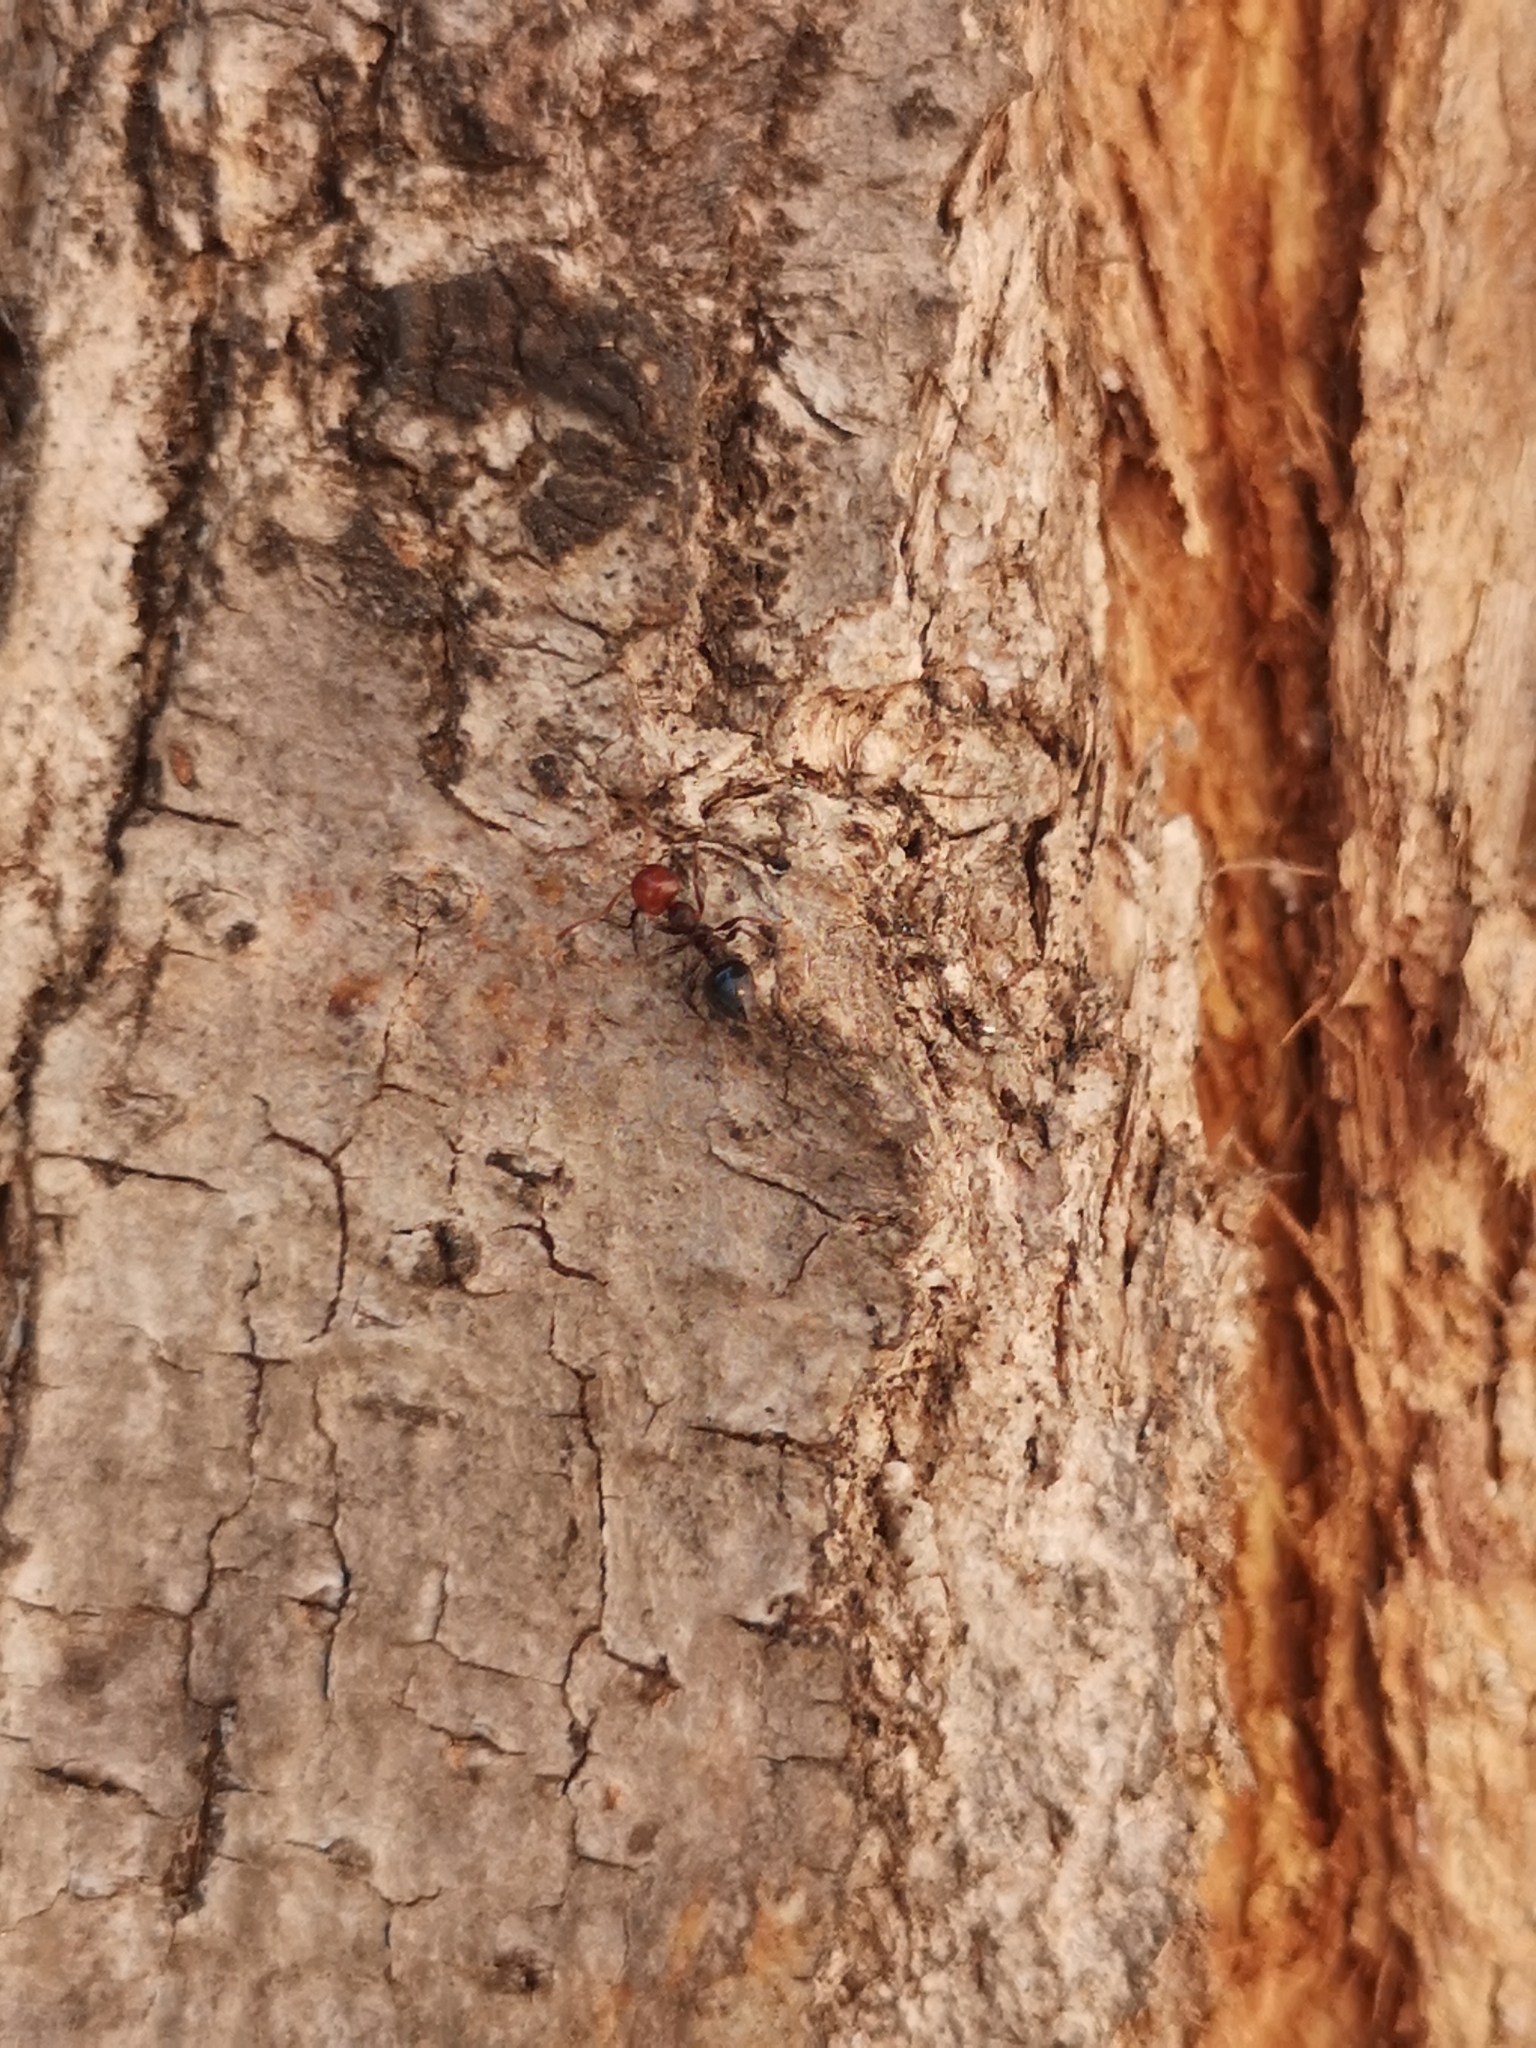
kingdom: Animalia
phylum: Arthropoda
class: Insecta
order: Hymenoptera
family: Formicidae
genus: Crematogaster
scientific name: Crematogaster scutellaris
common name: Fourmi du liège
